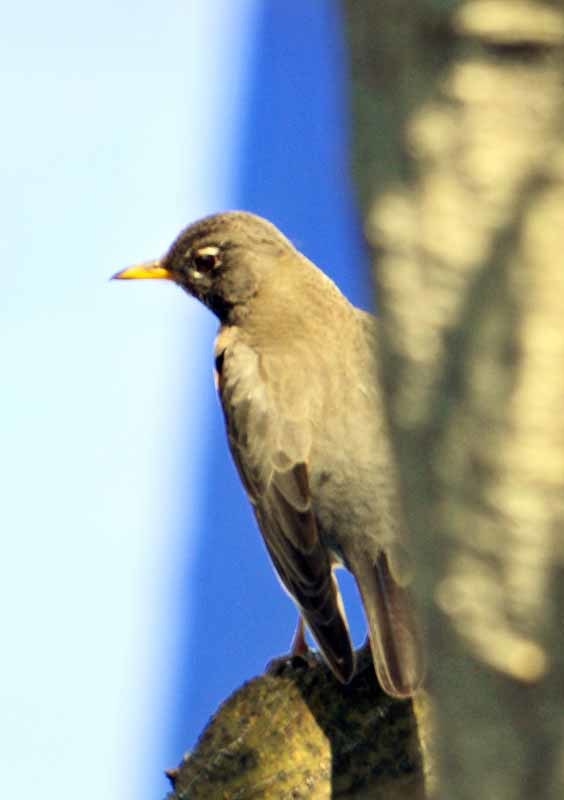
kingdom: Animalia
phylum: Chordata
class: Aves
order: Passeriformes
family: Turdidae
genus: Turdus
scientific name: Turdus migratorius
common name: American robin
